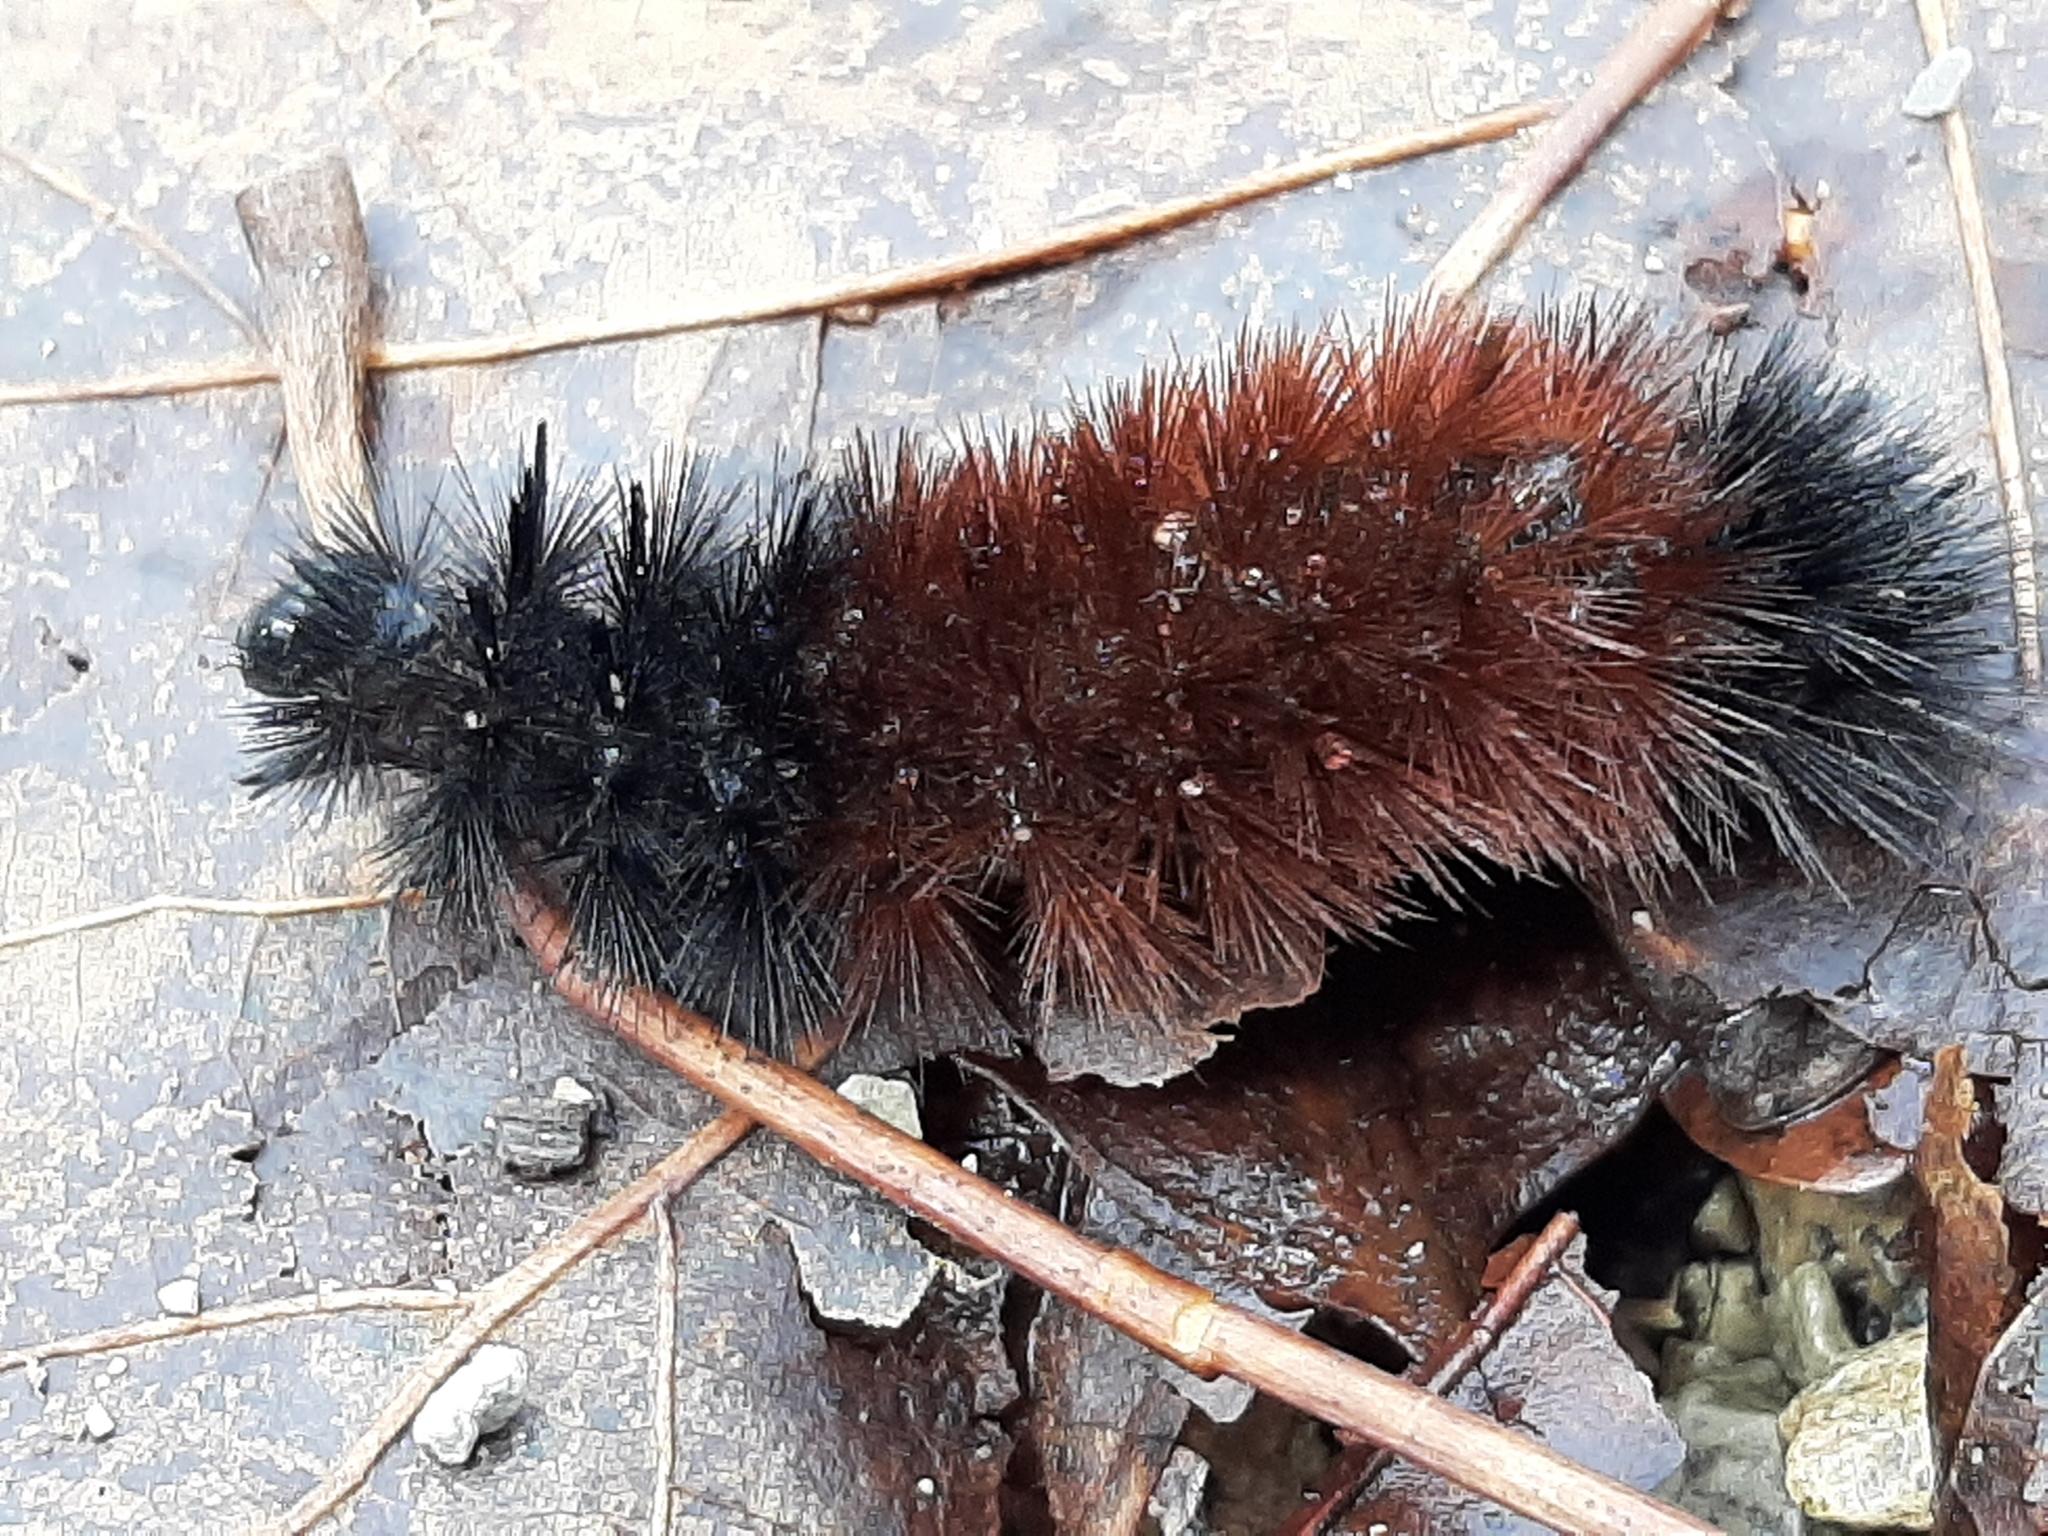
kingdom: Animalia
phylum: Arthropoda
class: Insecta
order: Lepidoptera
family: Erebidae
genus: Pyrrharctia
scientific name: Pyrrharctia isabella
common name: Isabella tiger moth
